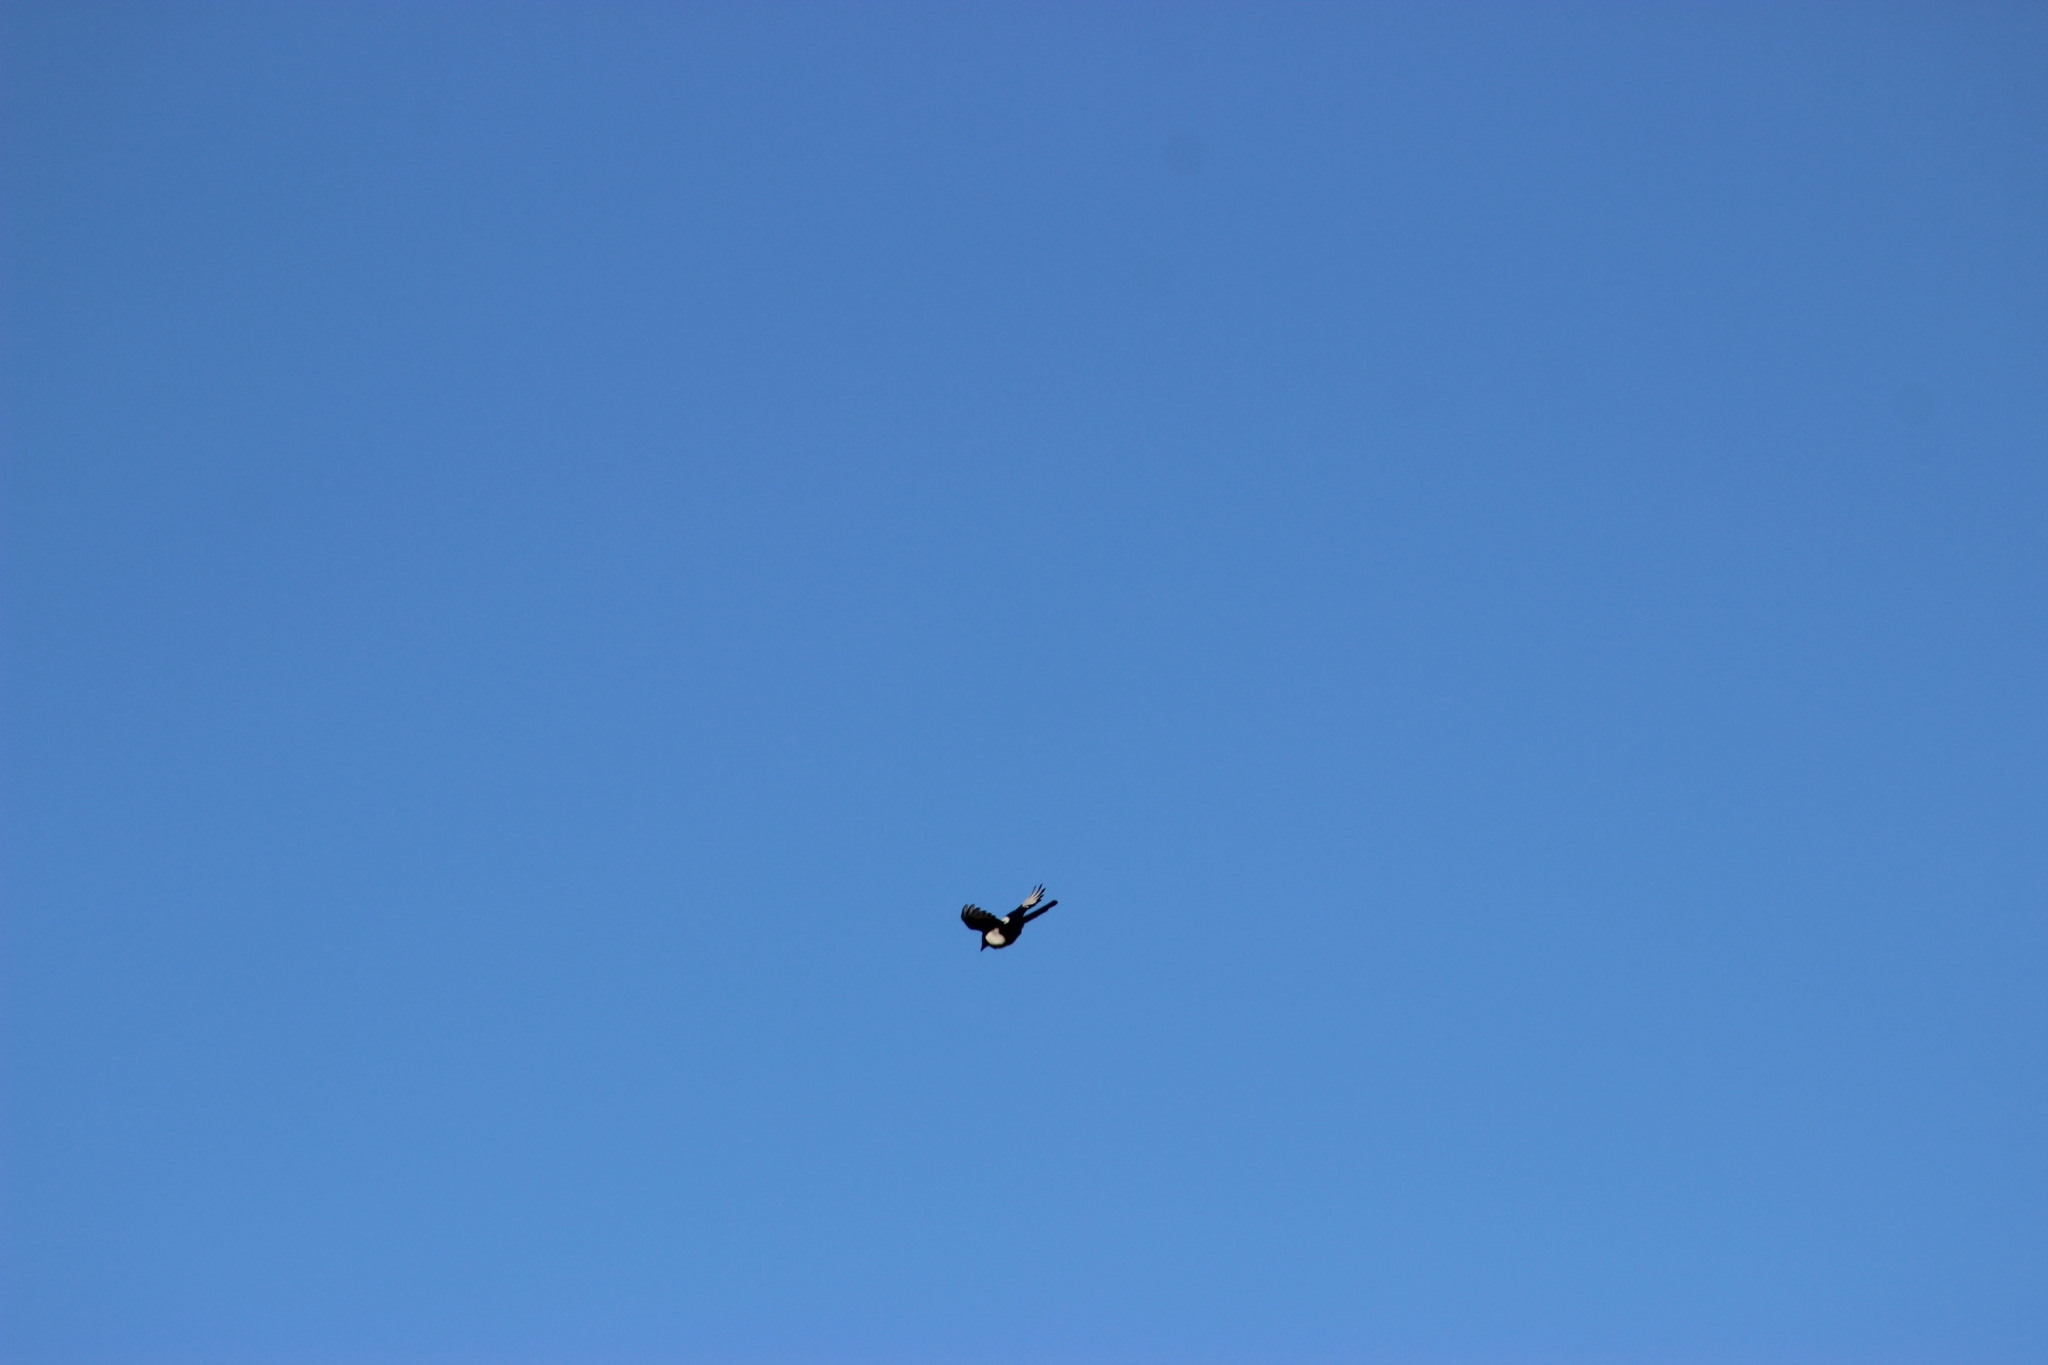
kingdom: Animalia
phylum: Chordata
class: Aves
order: Passeriformes
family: Corvidae
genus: Pica
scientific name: Pica pica
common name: Eurasian magpie
